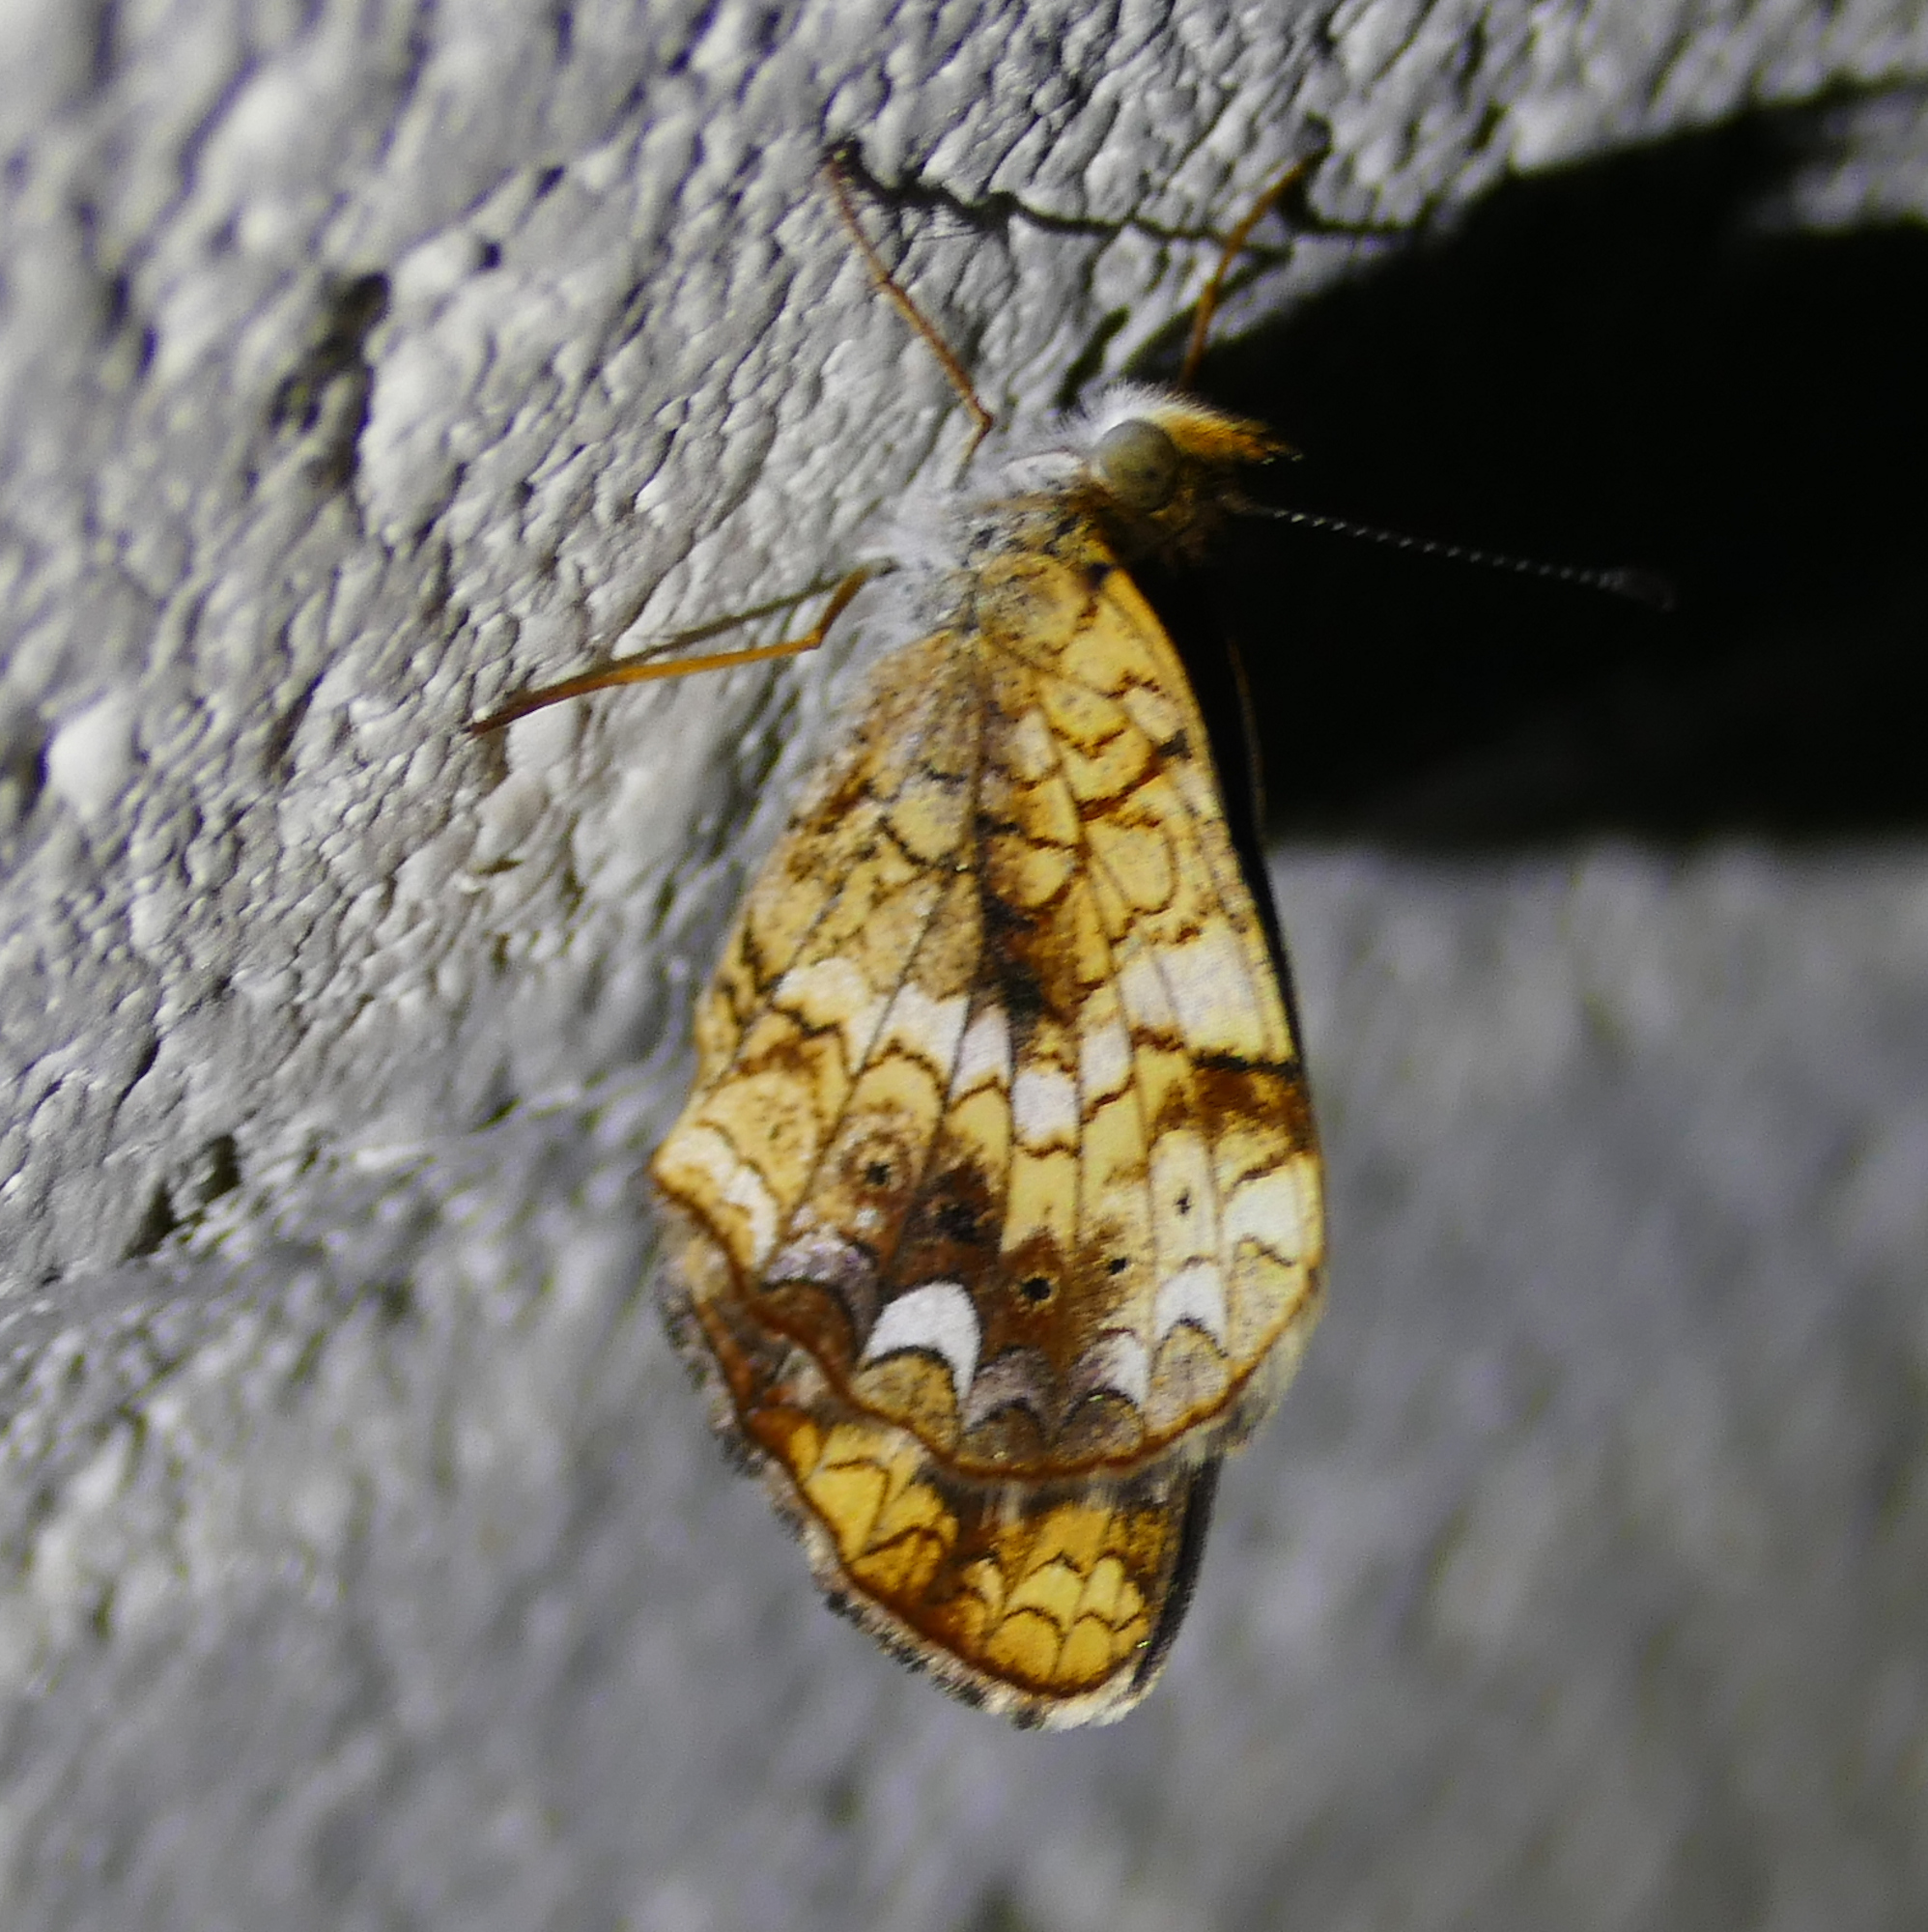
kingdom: Animalia
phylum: Arthropoda
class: Insecta
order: Lepidoptera
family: Nymphalidae
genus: Phyciodes
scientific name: Phyciodes tharos
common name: Pearl crescent
